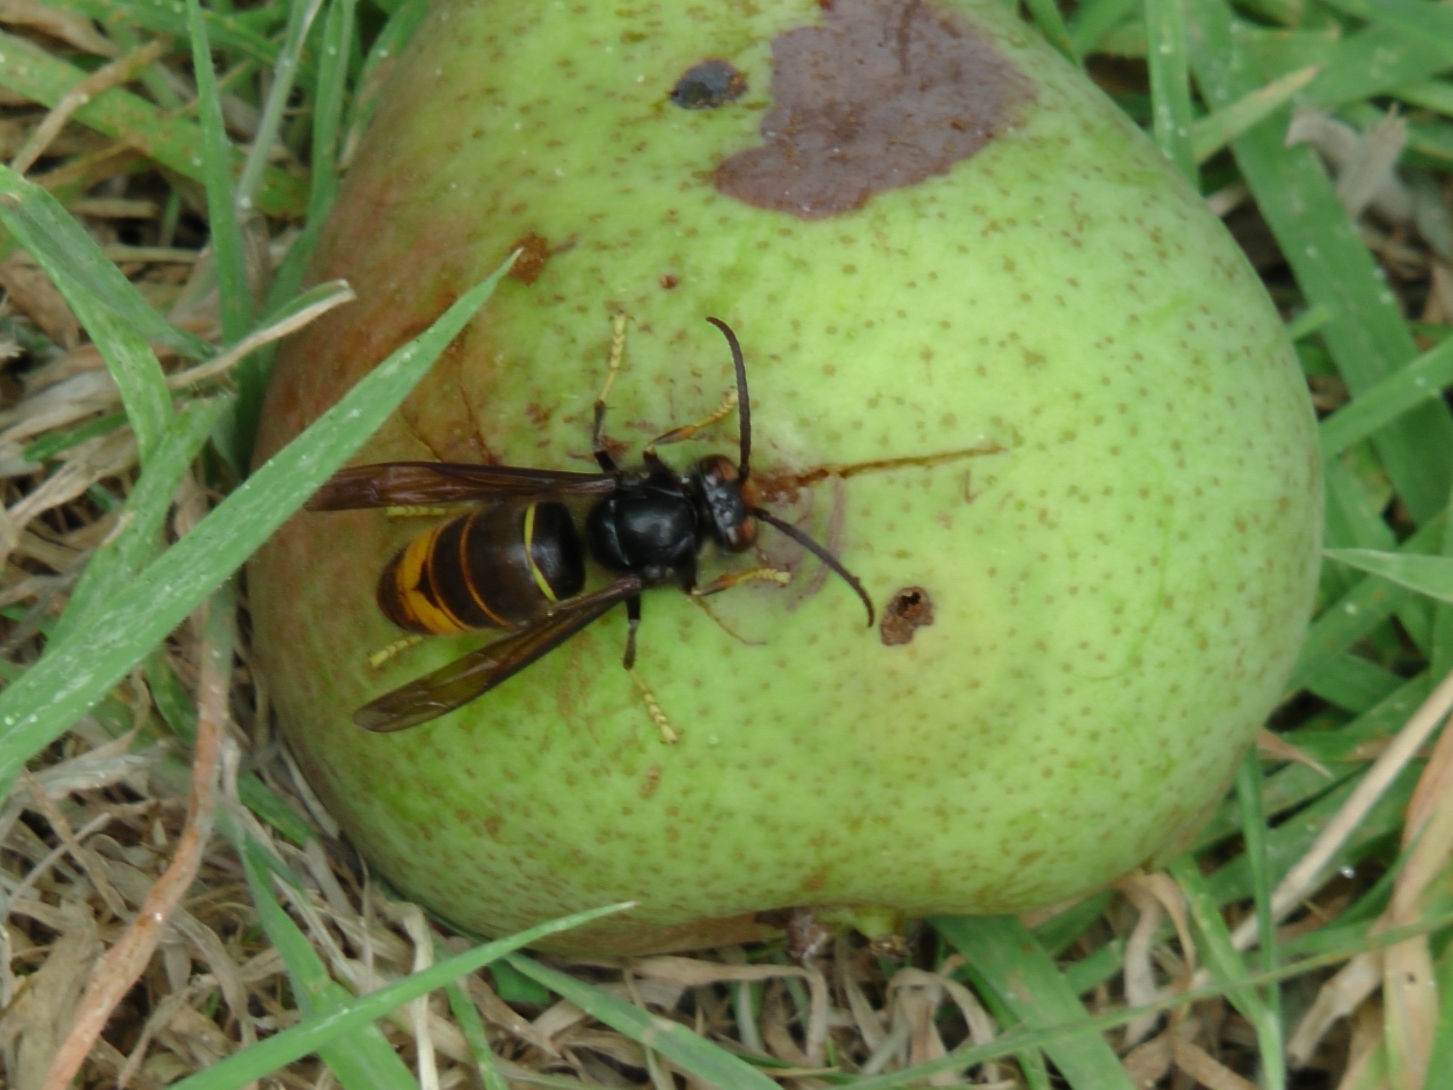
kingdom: Animalia
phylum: Arthropoda
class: Insecta
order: Hymenoptera
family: Vespidae
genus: Vespa
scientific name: Vespa velutina
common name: Asian hornet
